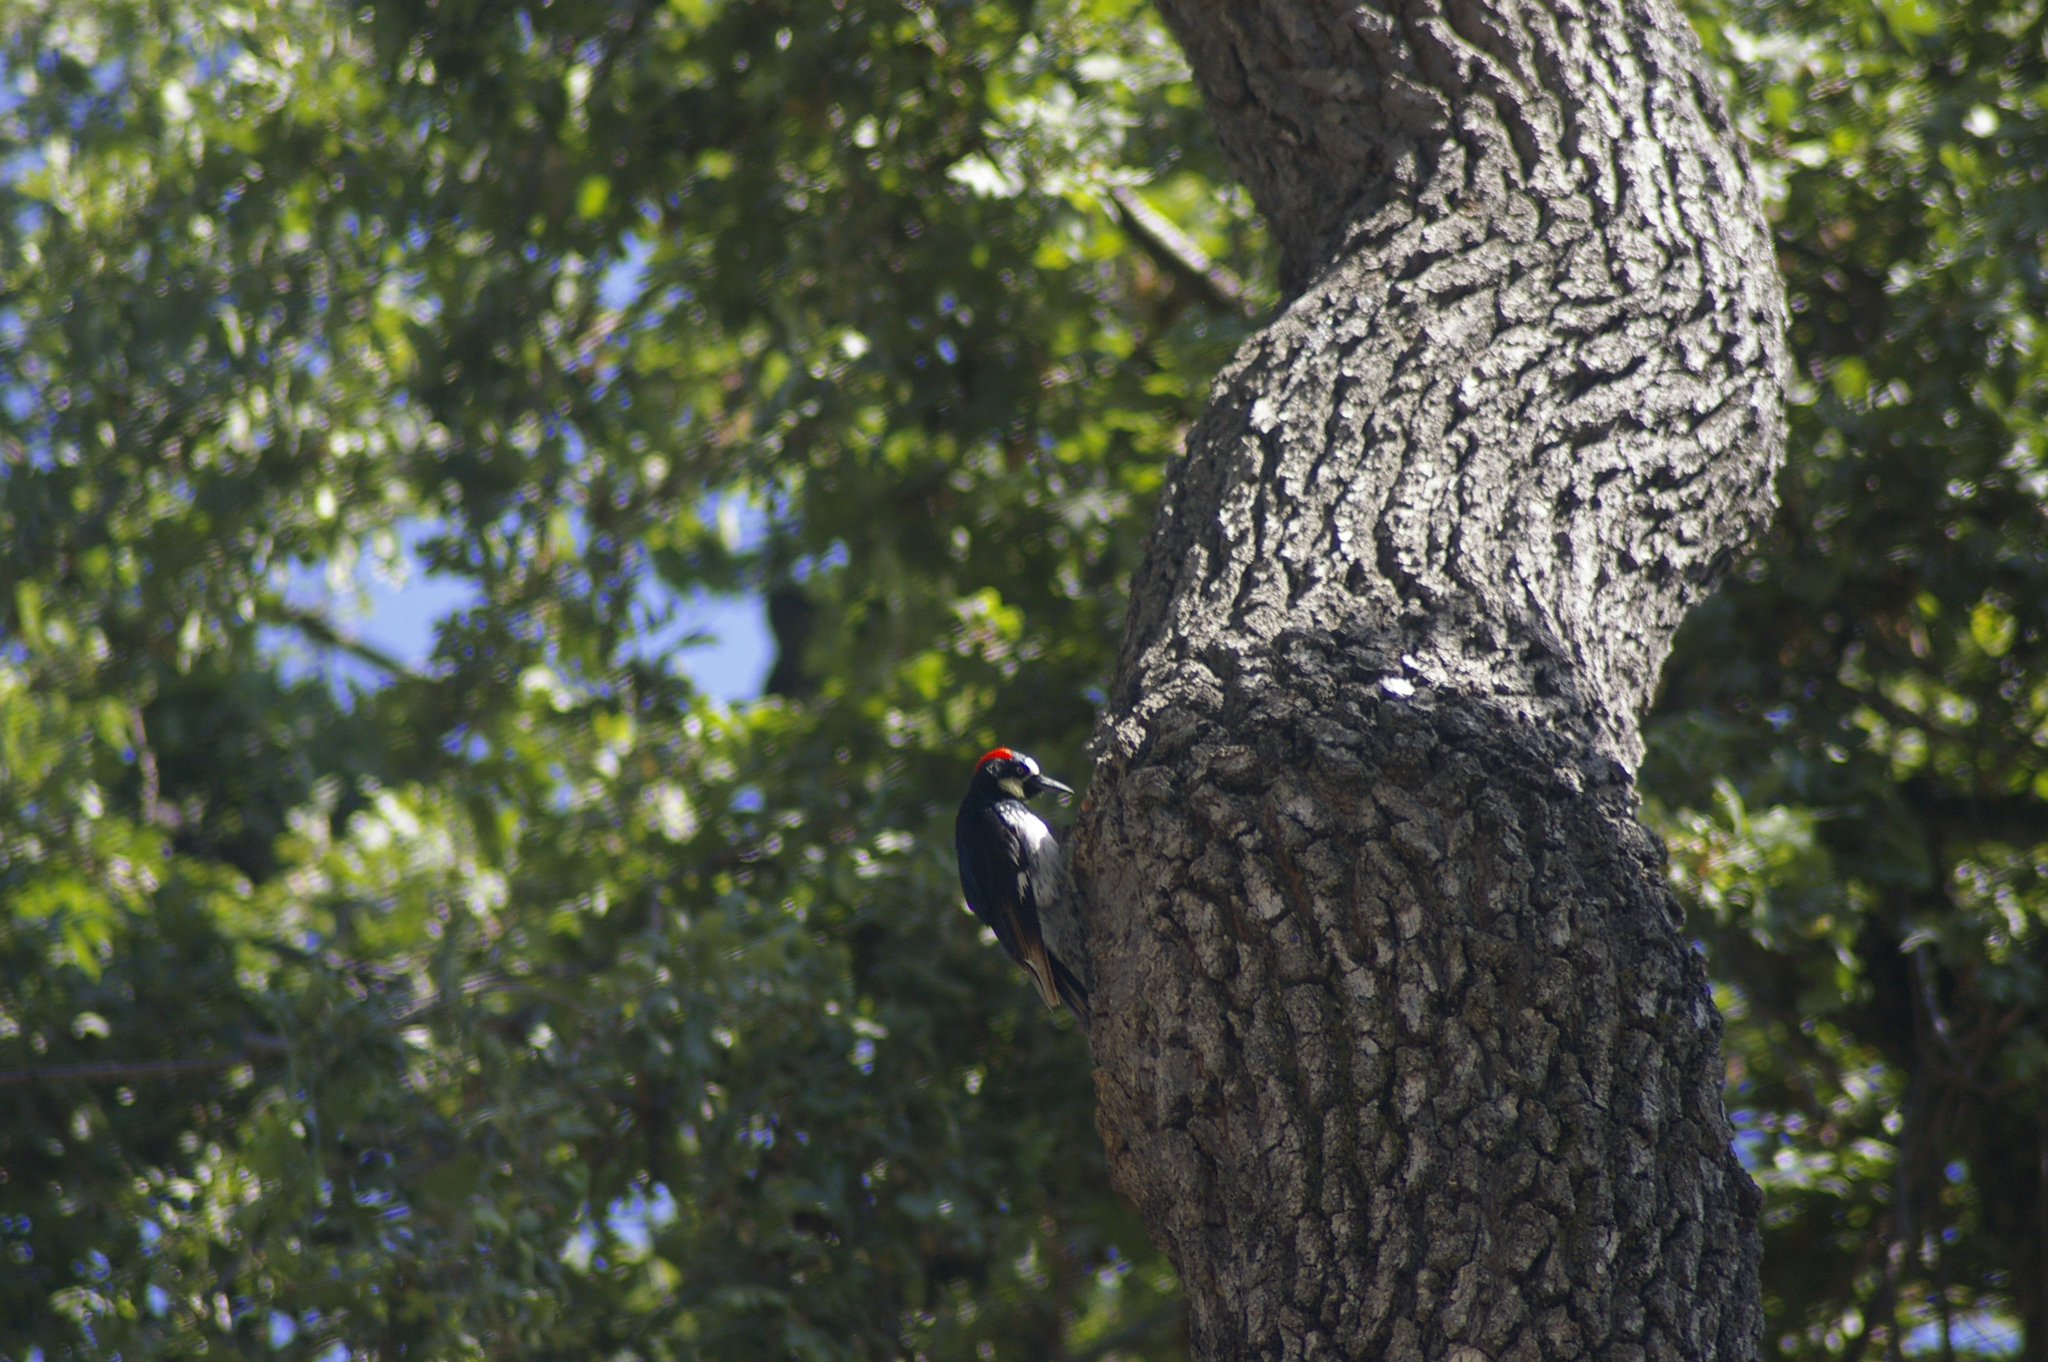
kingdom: Animalia
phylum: Chordata
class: Aves
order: Piciformes
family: Picidae
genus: Melanerpes
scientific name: Melanerpes formicivorus
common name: Acorn woodpecker
